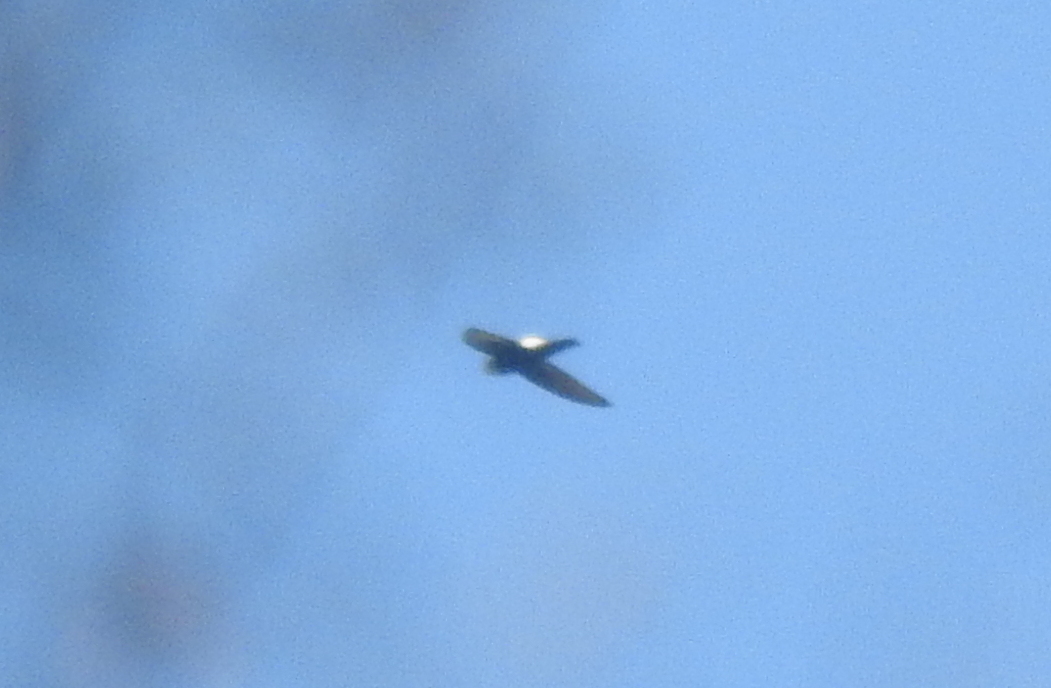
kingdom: Animalia
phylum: Chordata
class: Aves
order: Apodiformes
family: Apodidae
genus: Apus
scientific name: Apus affinis
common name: Little swift
